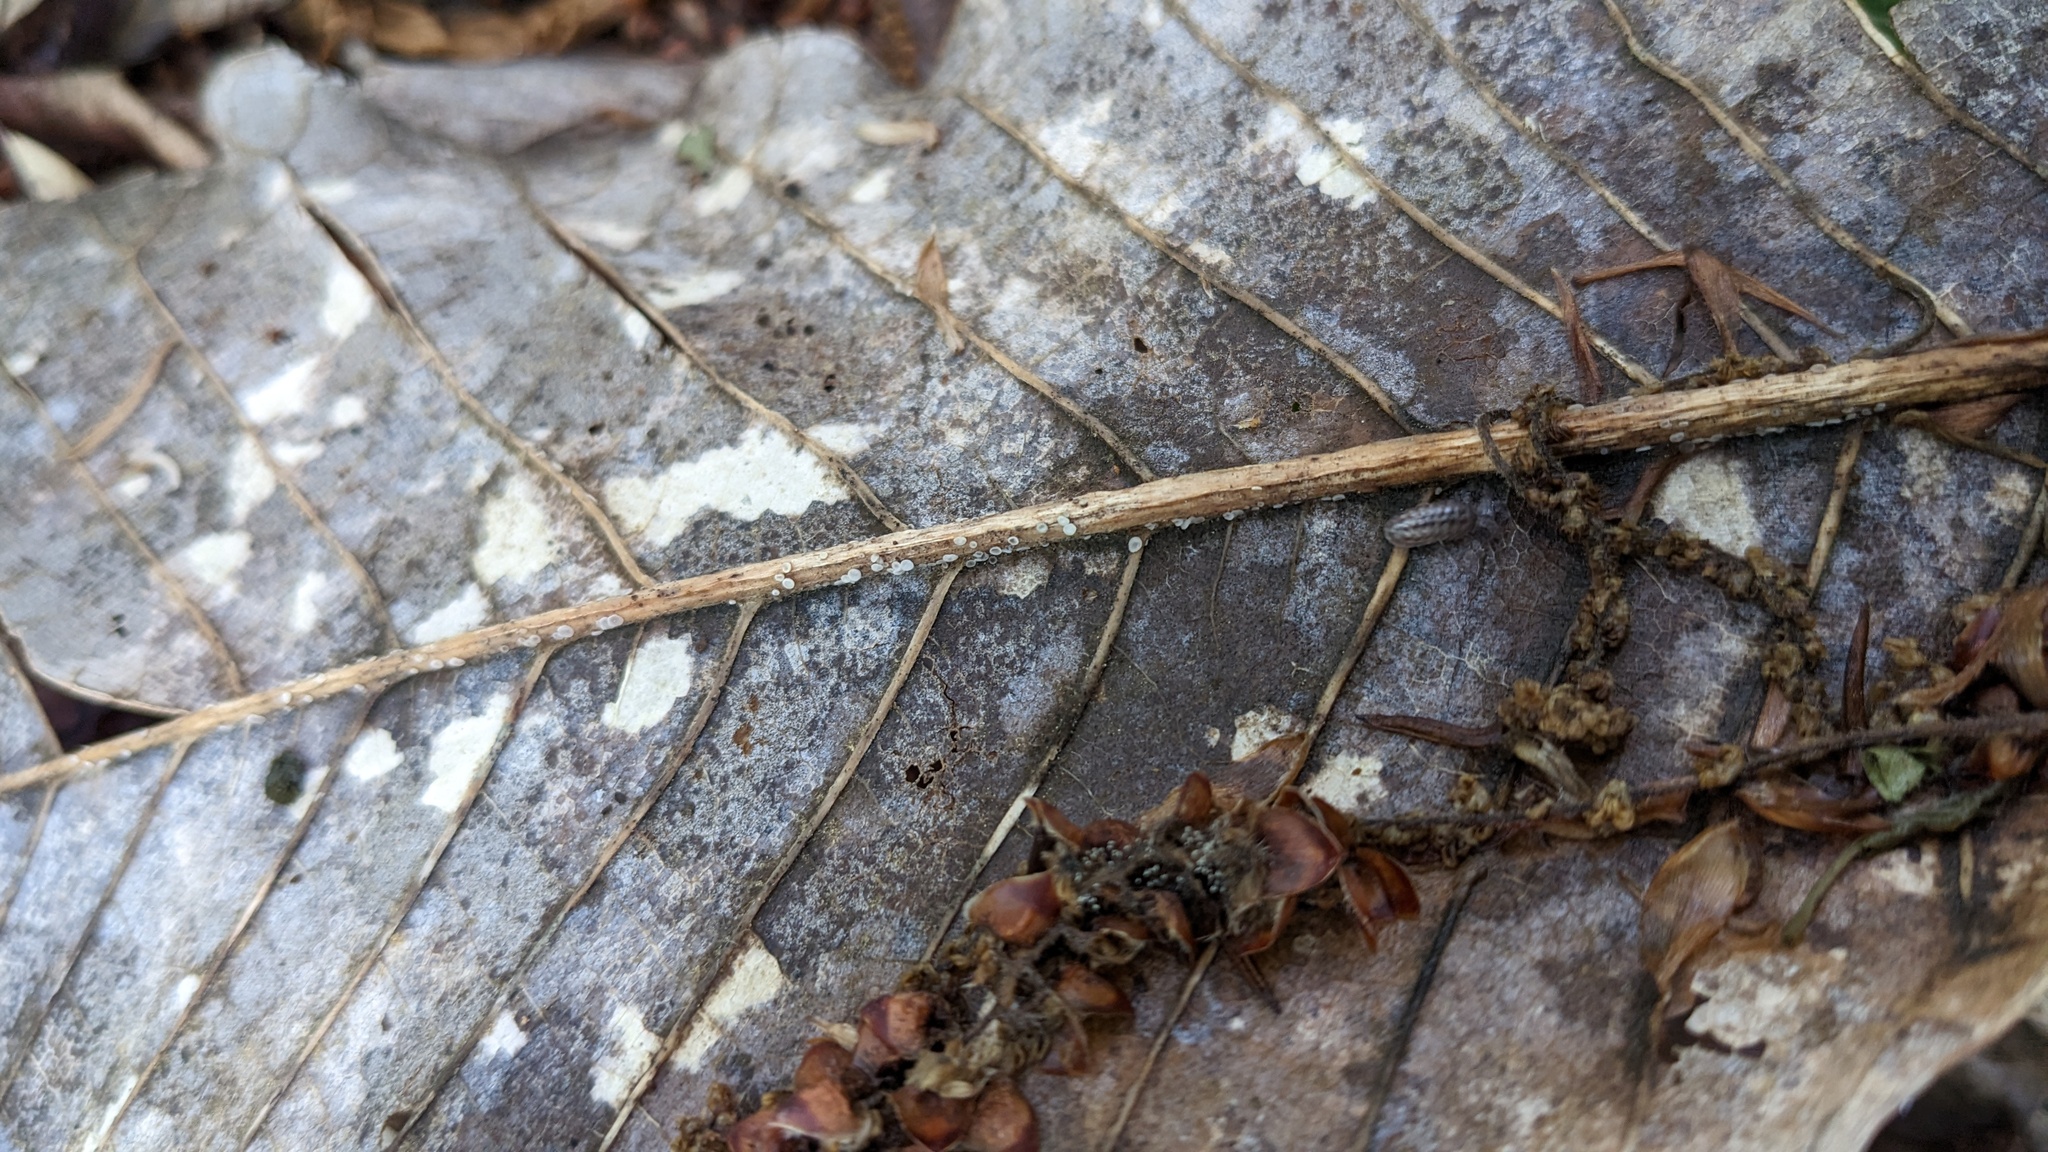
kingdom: Fungi
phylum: Ascomycota
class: Leotiomycetes
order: Helotiales
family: Mollisiaceae
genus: Mollisia
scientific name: Mollisia protrusa
